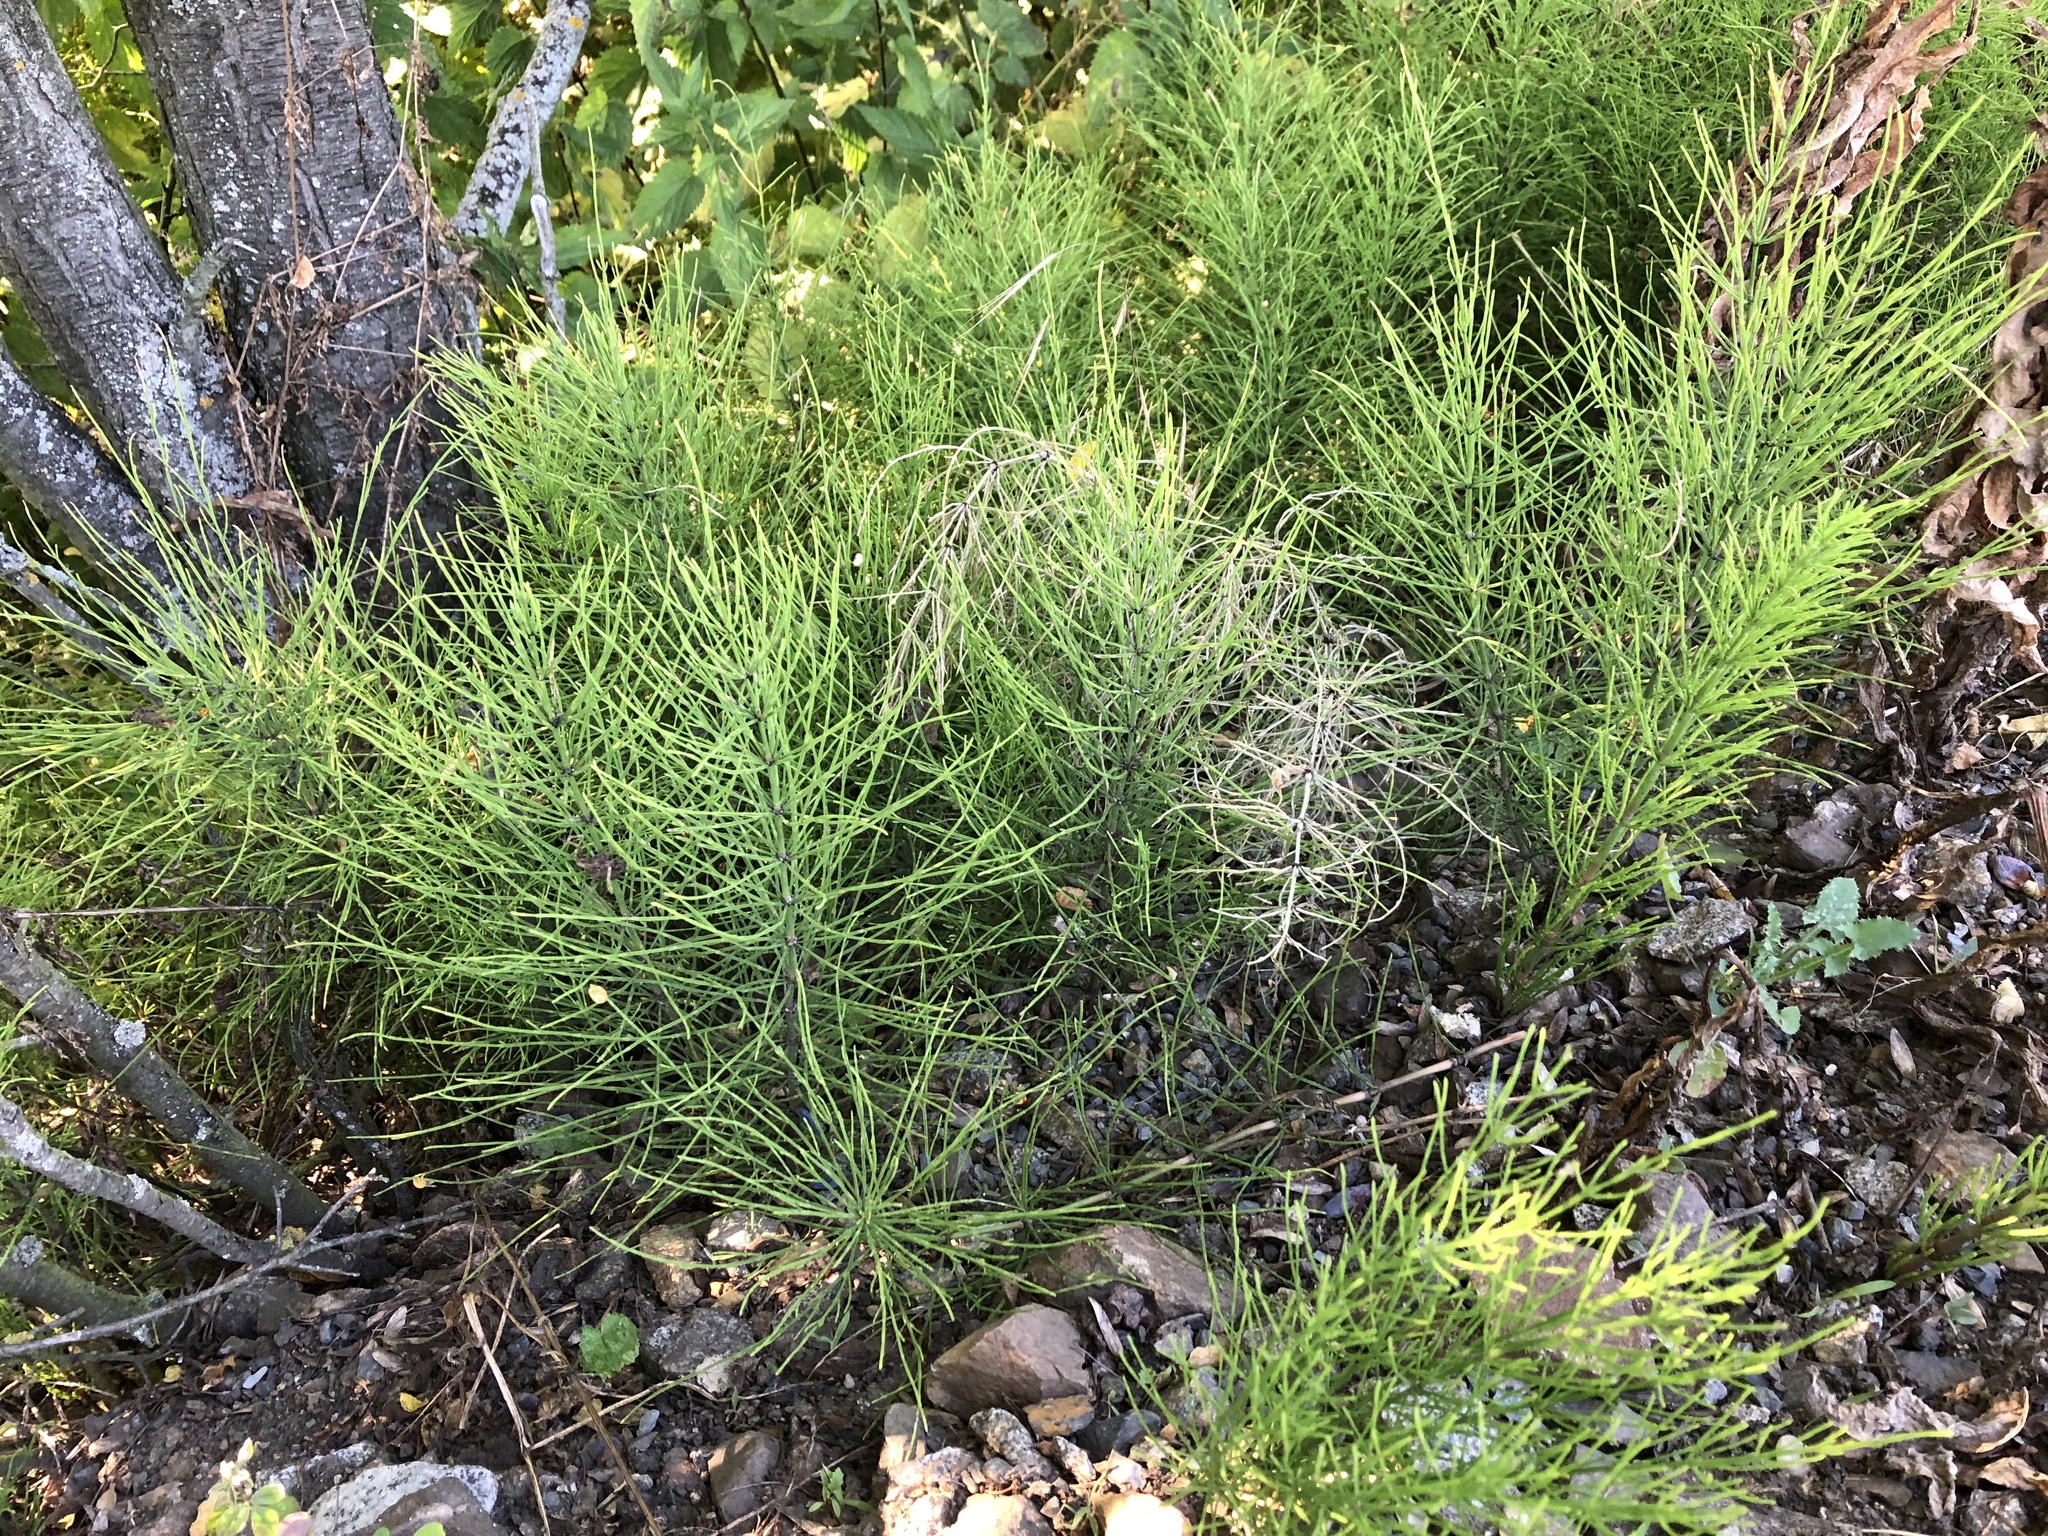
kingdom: Plantae
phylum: Tracheophyta
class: Polypodiopsida
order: Equisetales
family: Equisetaceae
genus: Equisetum
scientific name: Equisetum arvense
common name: Field horsetail
